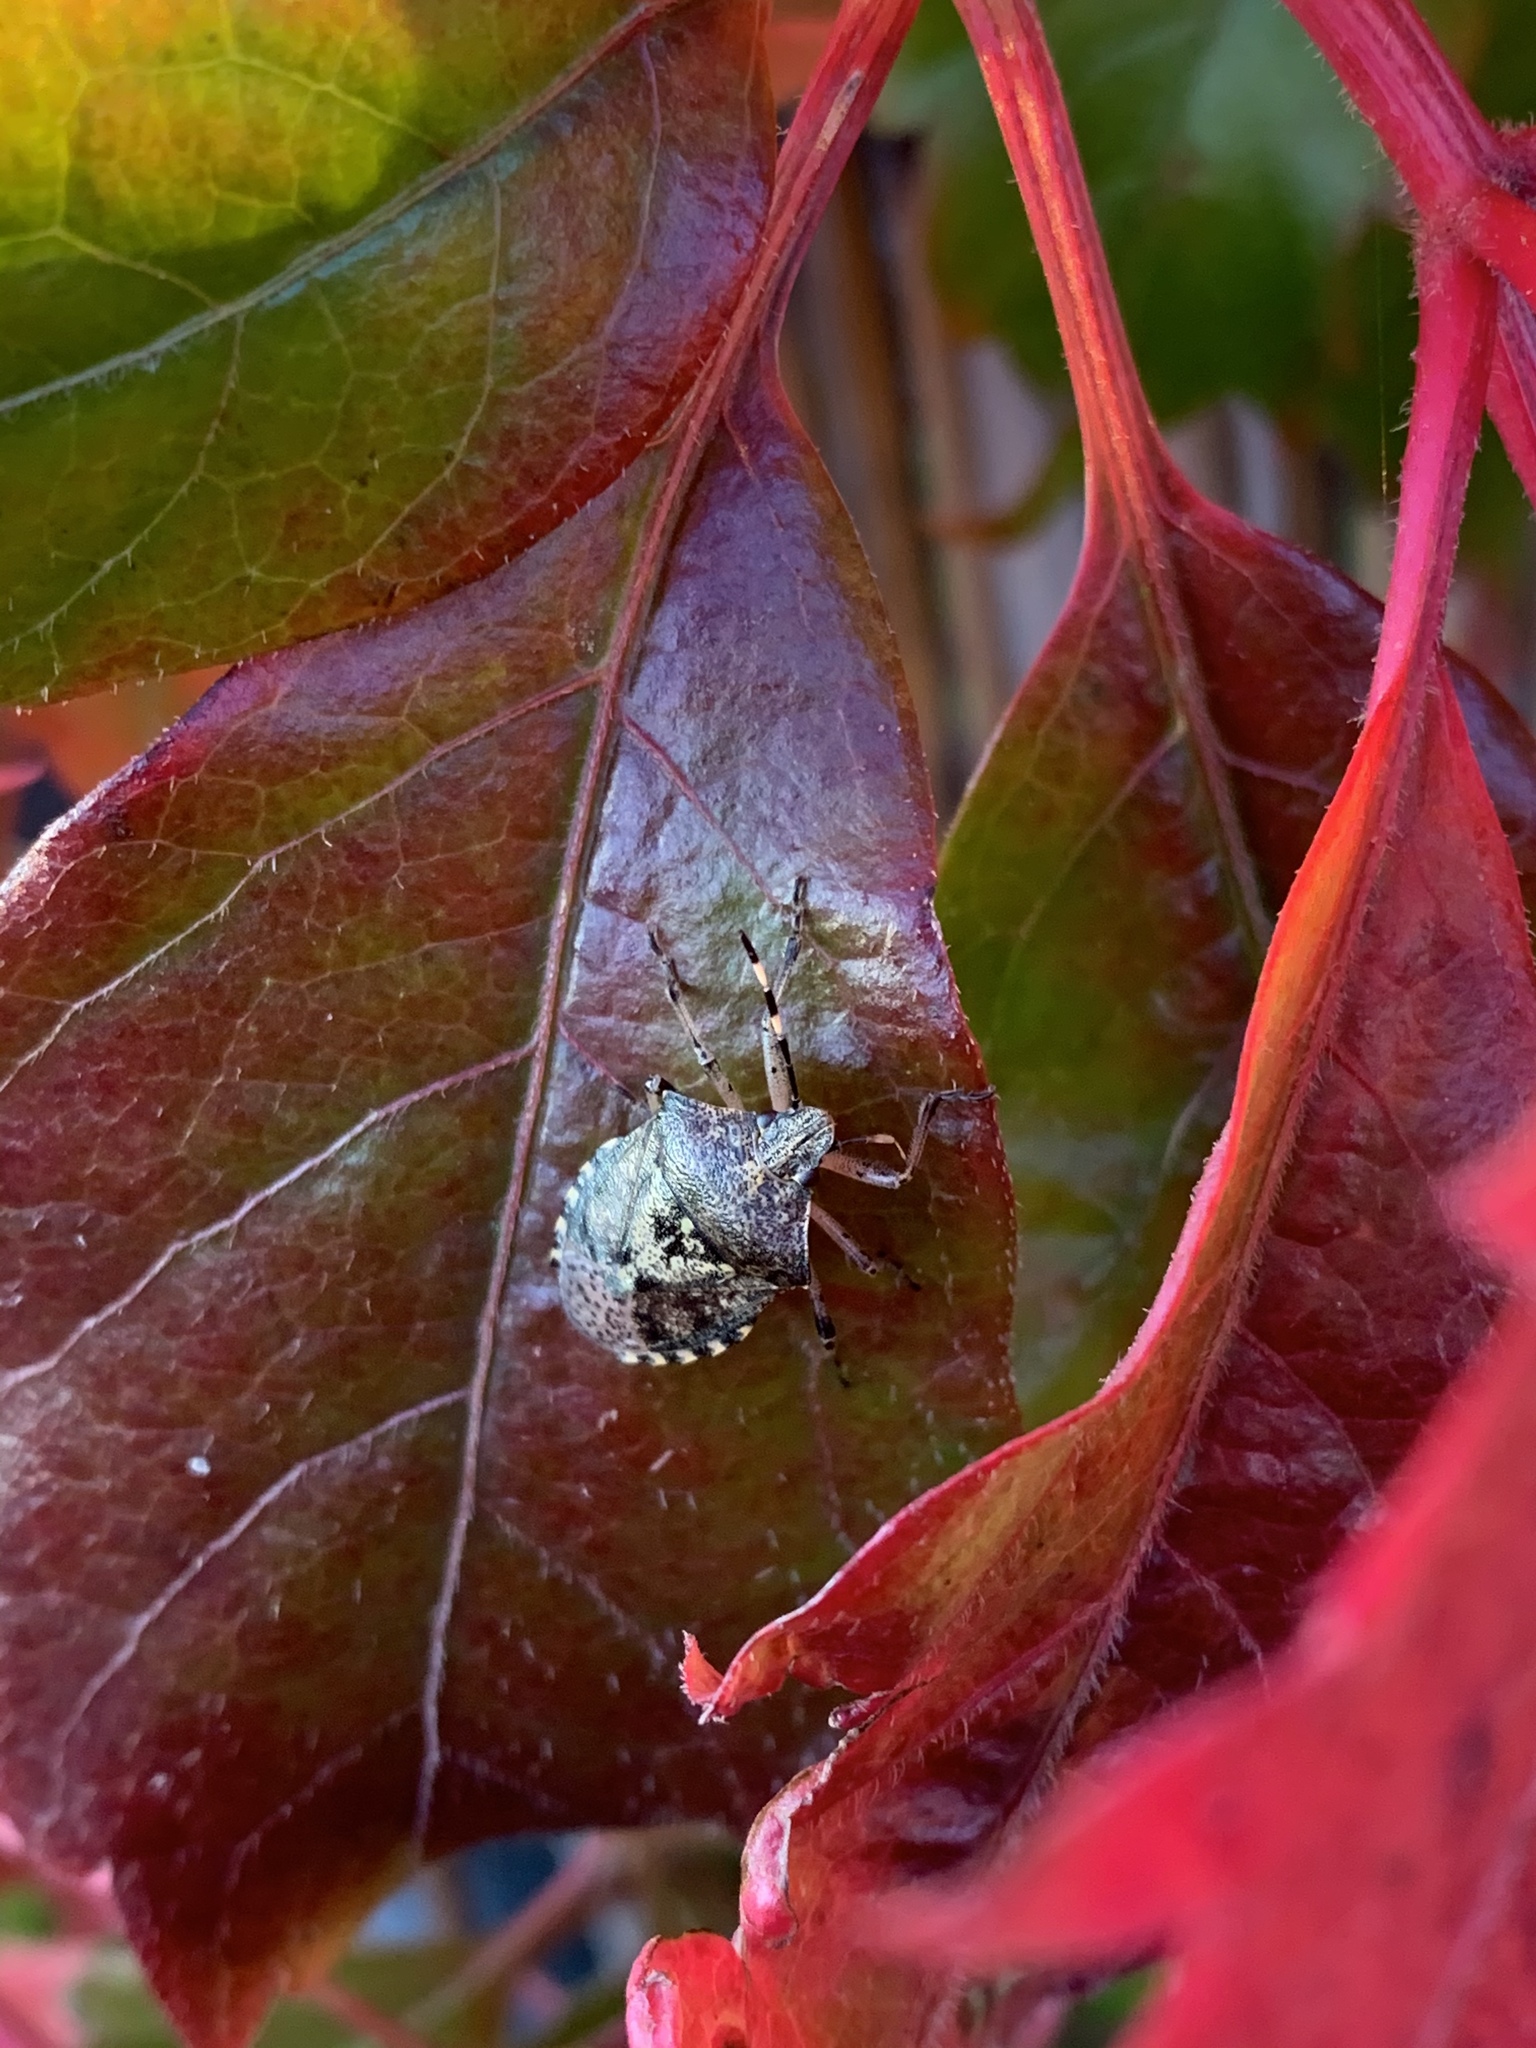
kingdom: Animalia
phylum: Arthropoda
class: Insecta
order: Hemiptera
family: Pentatomidae
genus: Rhaphigaster
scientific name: Rhaphigaster nebulosa
